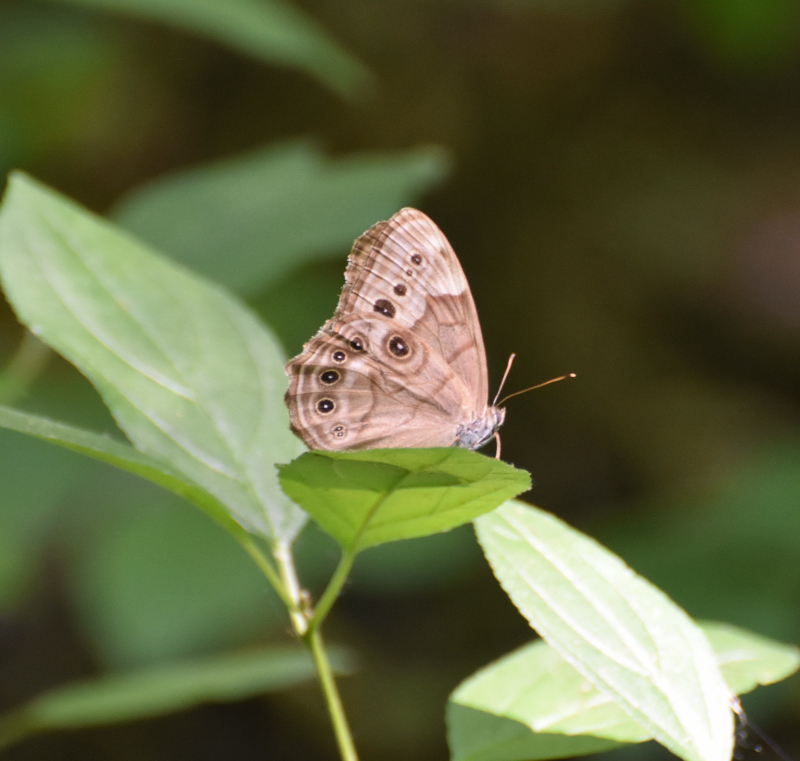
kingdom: Animalia
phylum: Arthropoda
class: Insecta
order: Lepidoptera
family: Nymphalidae
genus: Lethe
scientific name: Lethe anthedon
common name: Northern pearly-eye
